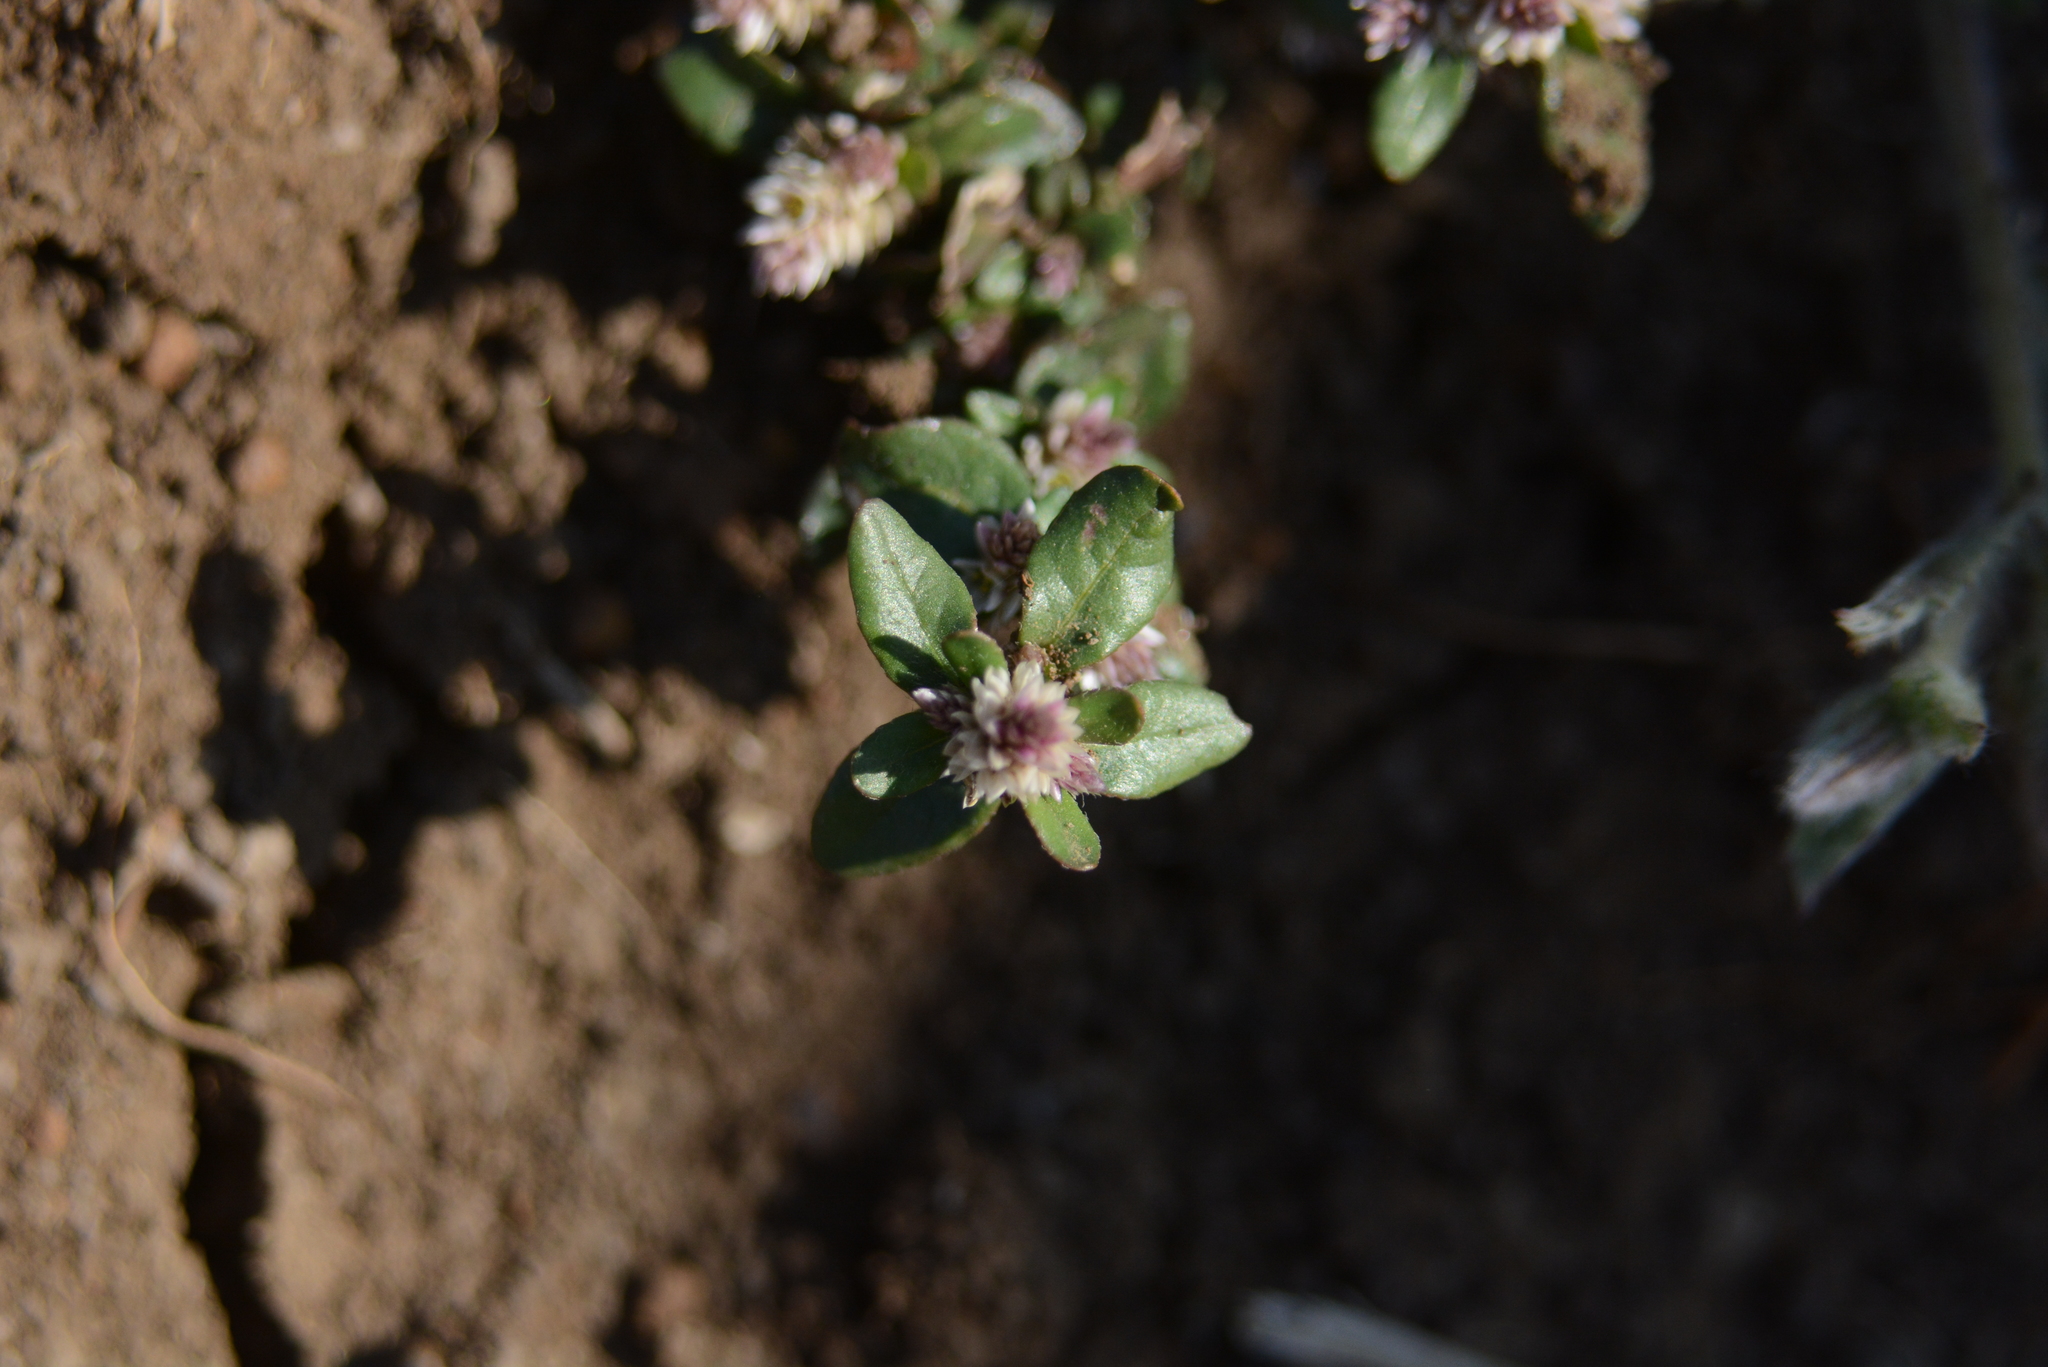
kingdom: Plantae
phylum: Tracheophyta
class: Magnoliopsida
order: Caryophyllales
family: Amaranthaceae
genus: Alternanthera
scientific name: Alternanthera sessilis
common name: Sessile joyweed
